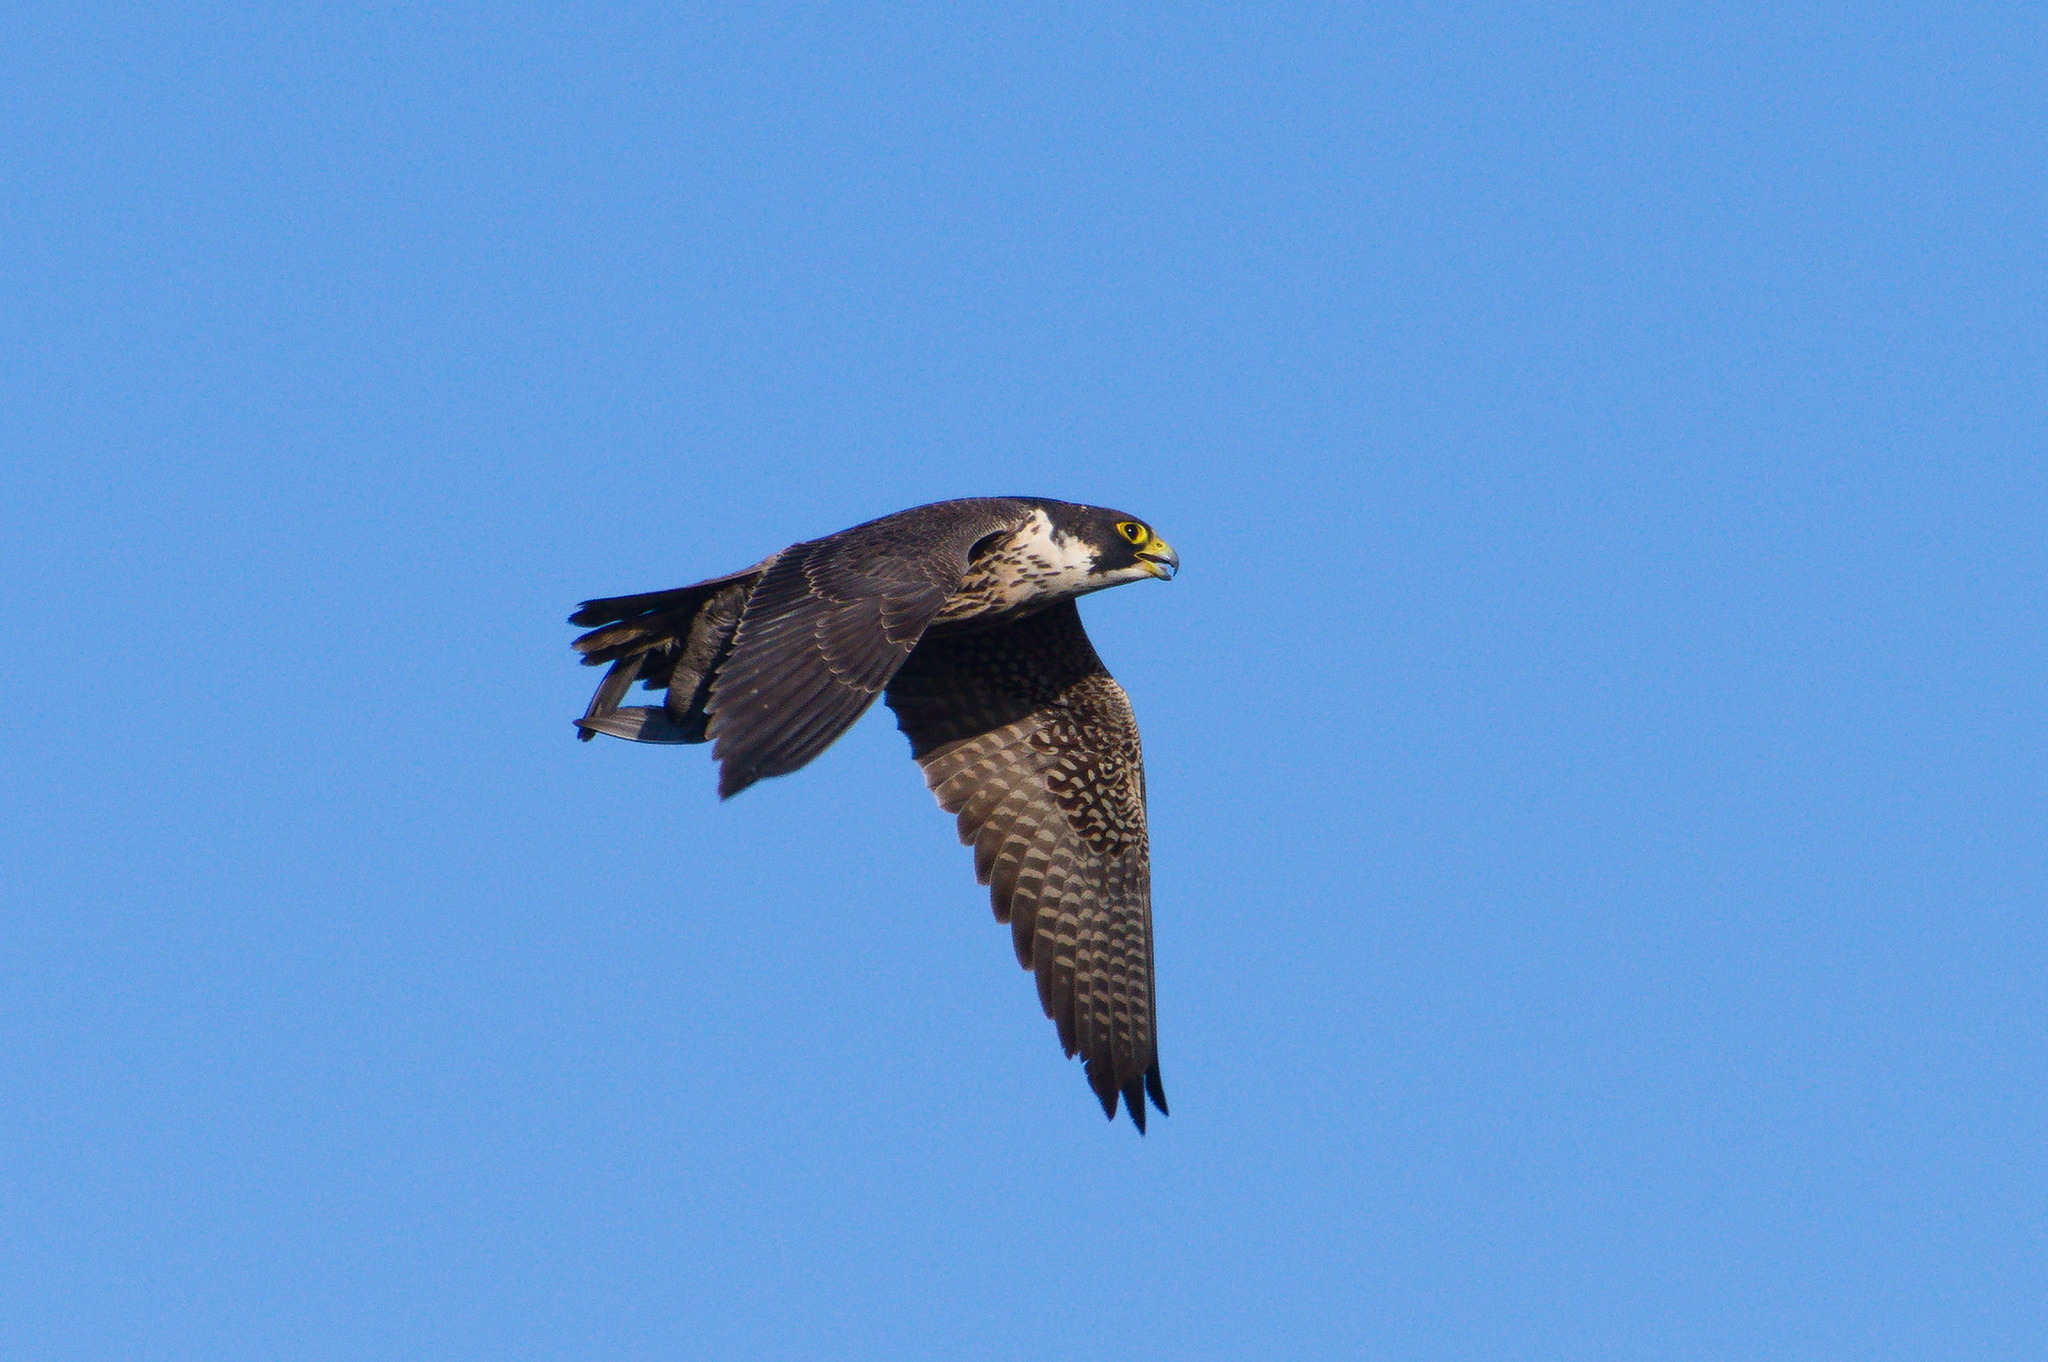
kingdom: Animalia
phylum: Chordata
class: Aves
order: Falconiformes
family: Falconidae
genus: Falco
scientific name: Falco peregrinus
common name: Peregrine falcon
